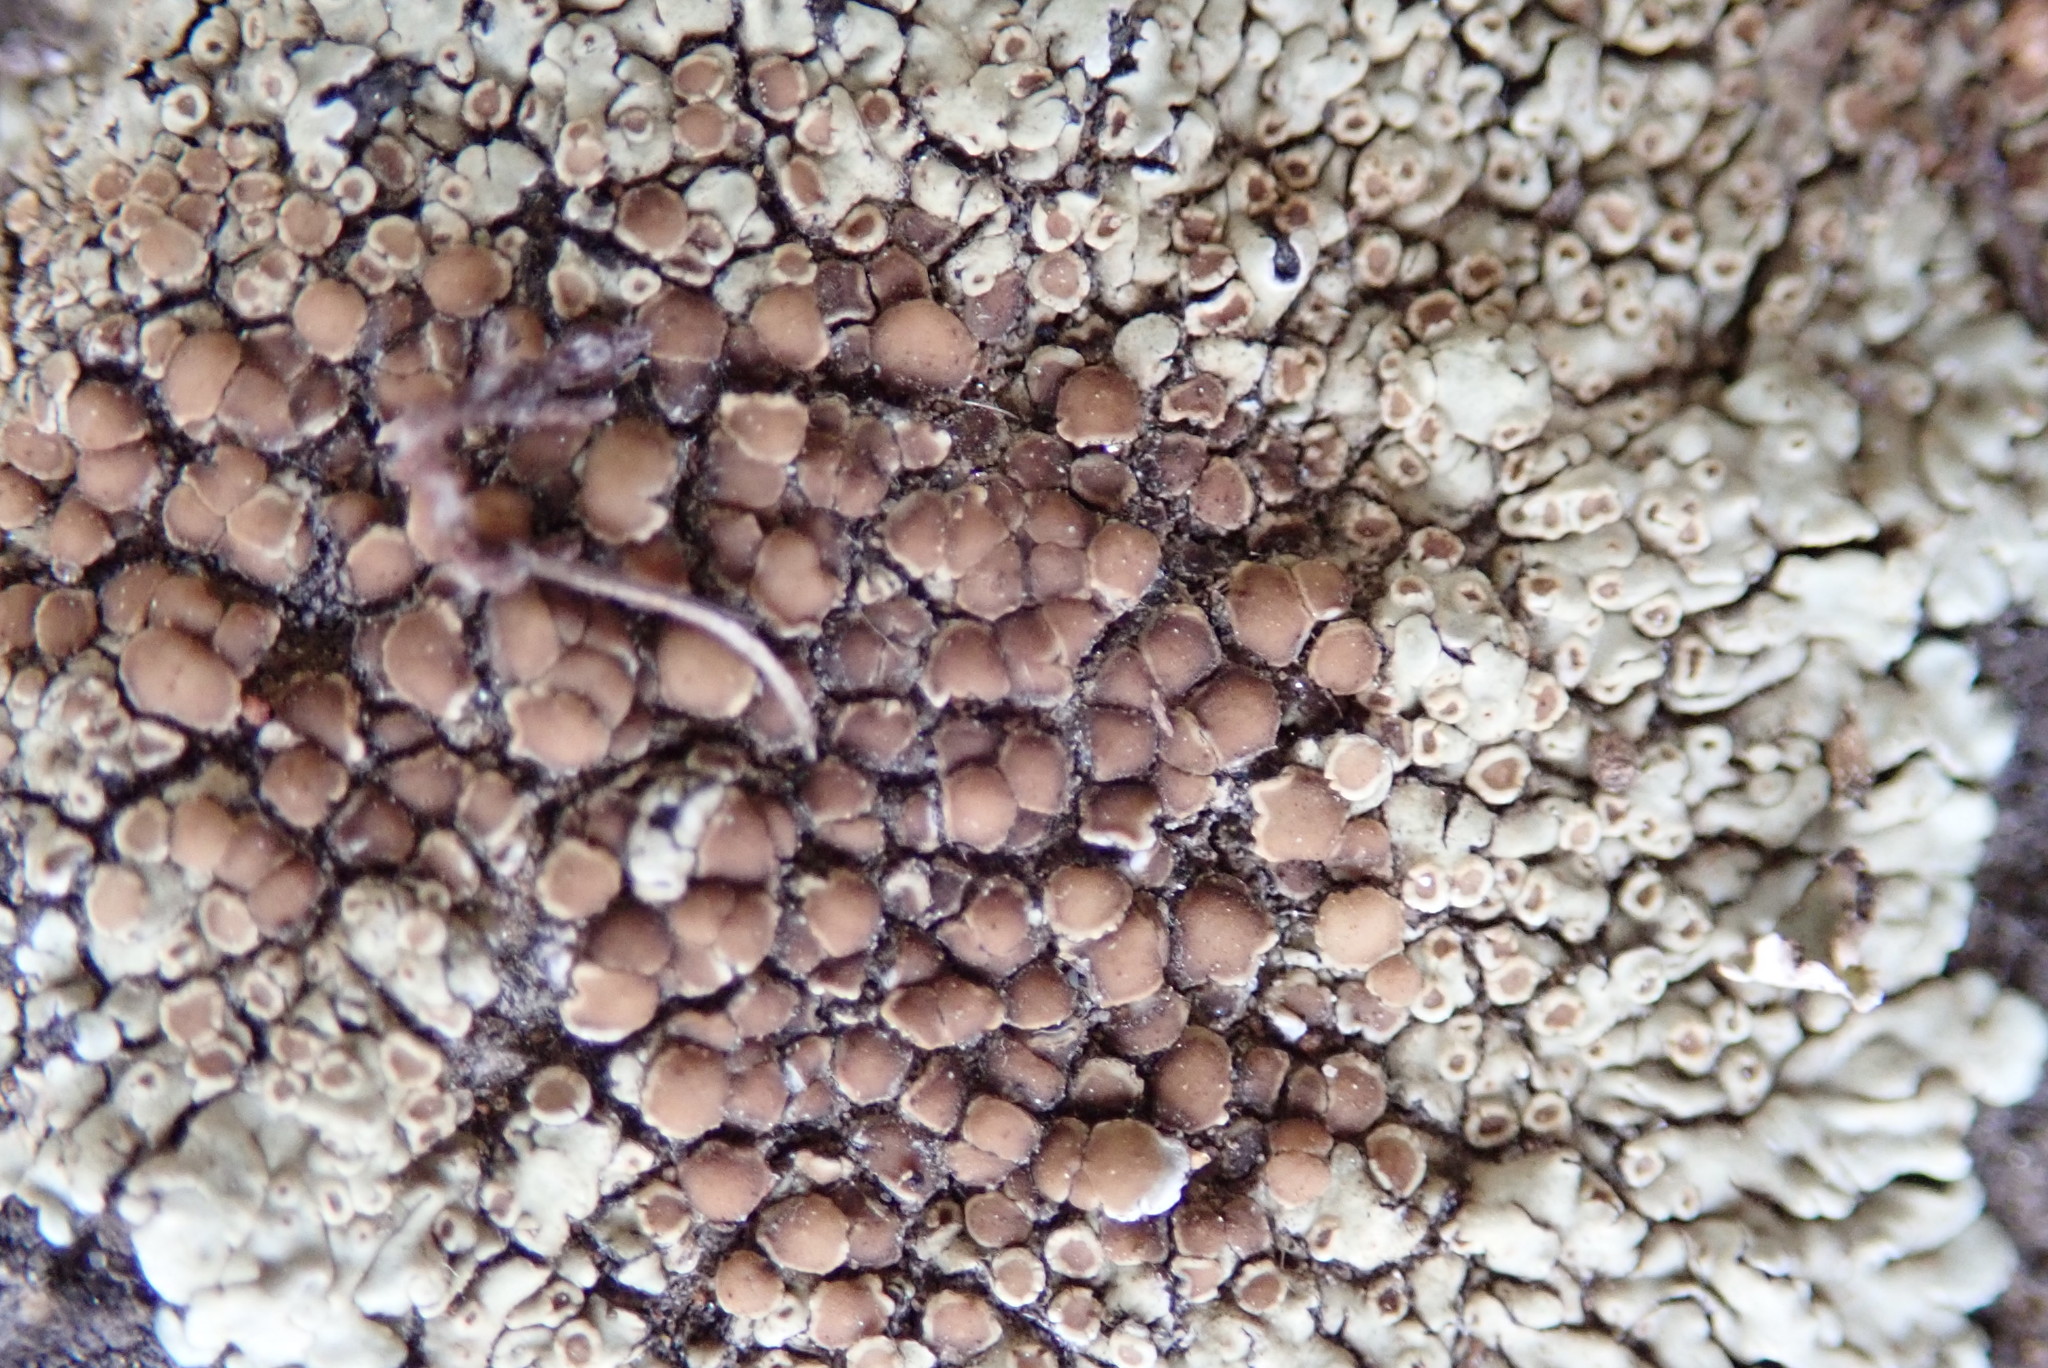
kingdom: Fungi
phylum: Ascomycota
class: Lecanoromycetes
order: Lecanorales
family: Lecanoraceae
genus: Protoparmeliopsis
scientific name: Protoparmeliopsis muralis
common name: Stonewall rim lichen
